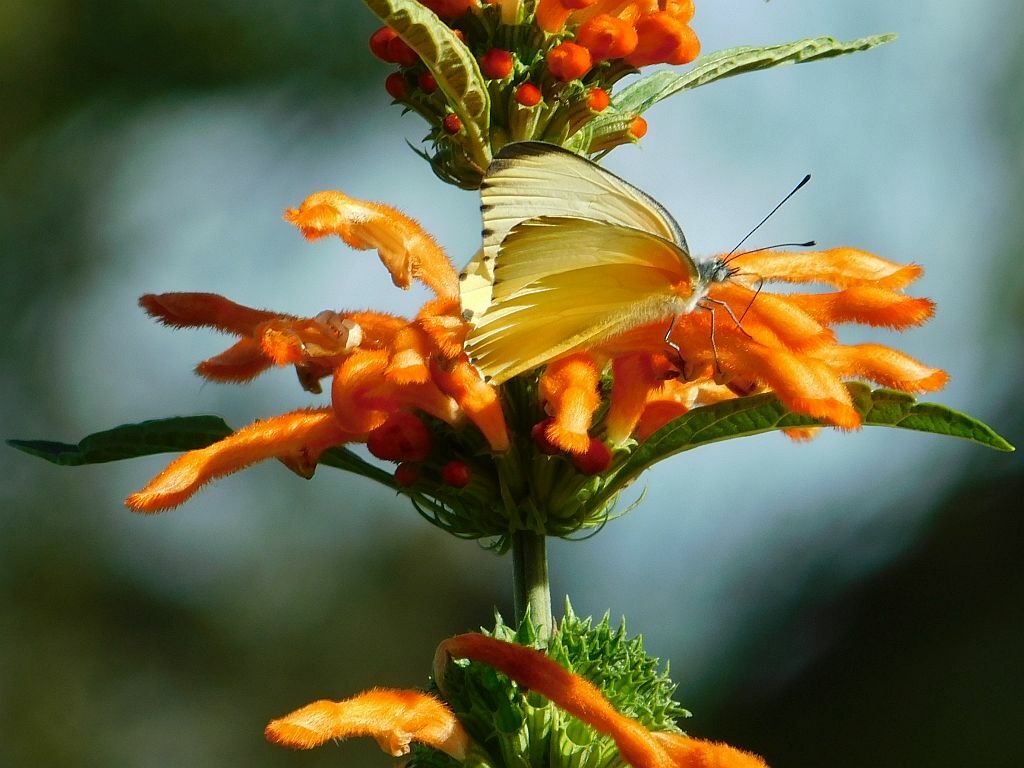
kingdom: Animalia
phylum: Arthropoda
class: Insecta
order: Lepidoptera
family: Pieridae
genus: Mylothris
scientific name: Mylothris agathina
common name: Eastern dotted border
